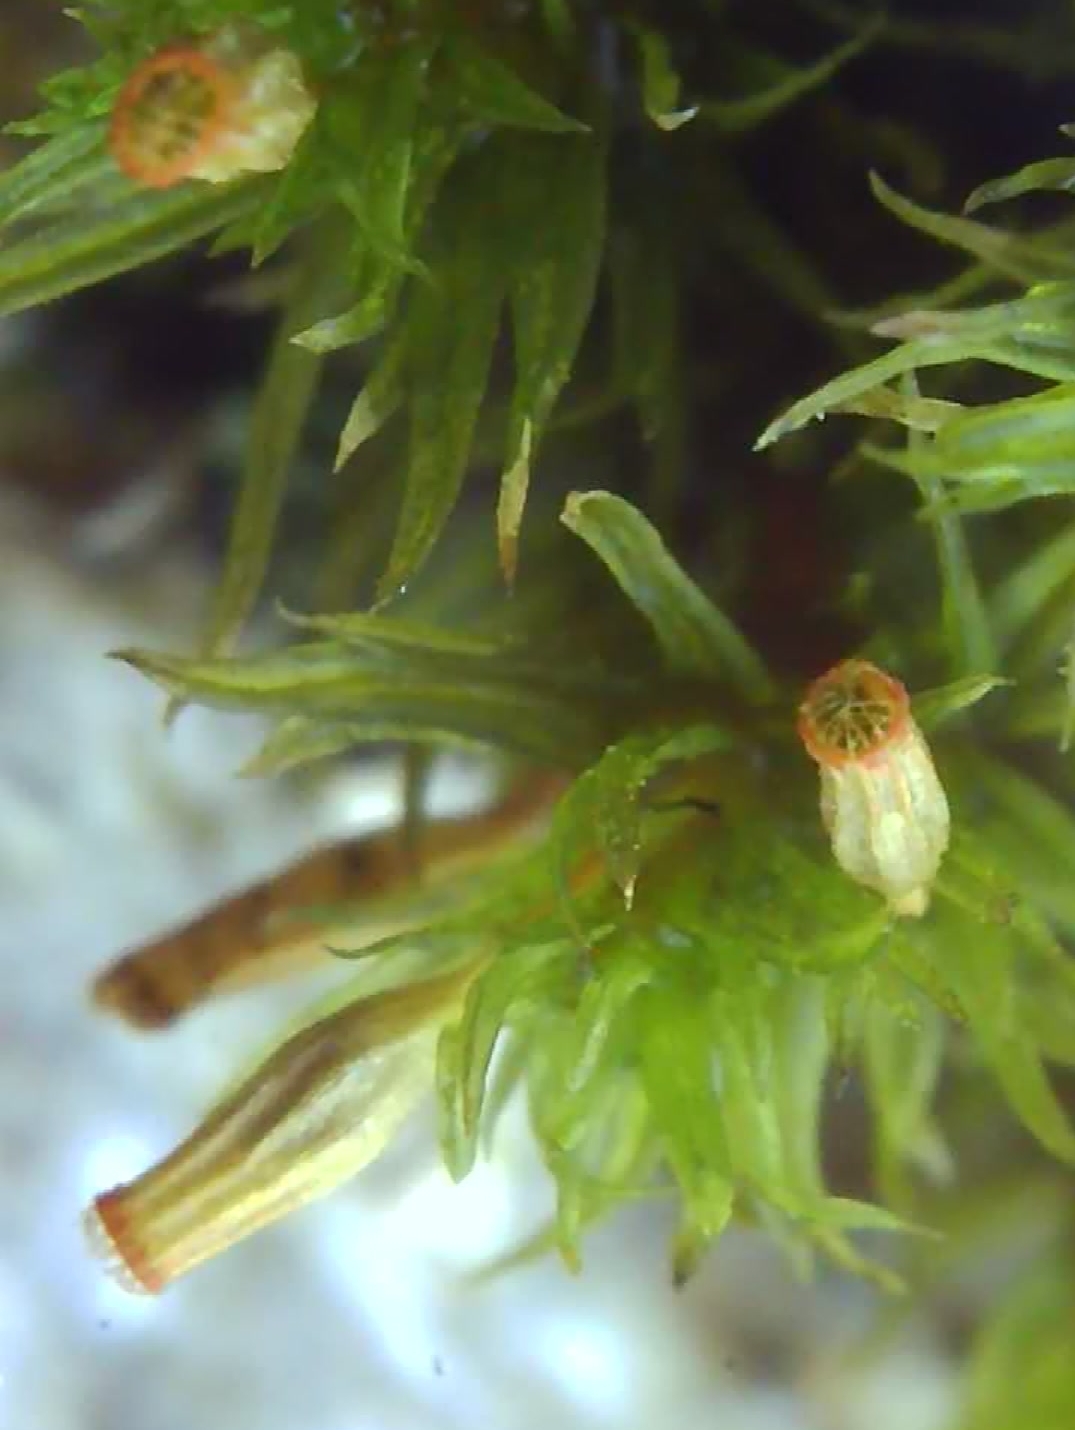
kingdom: Plantae
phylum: Bryophyta
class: Bryopsida
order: Orthotrichales
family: Orthotrichaceae
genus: Orthotrichum
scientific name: Orthotrichum pulchellum
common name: Elegant bristle-moss
